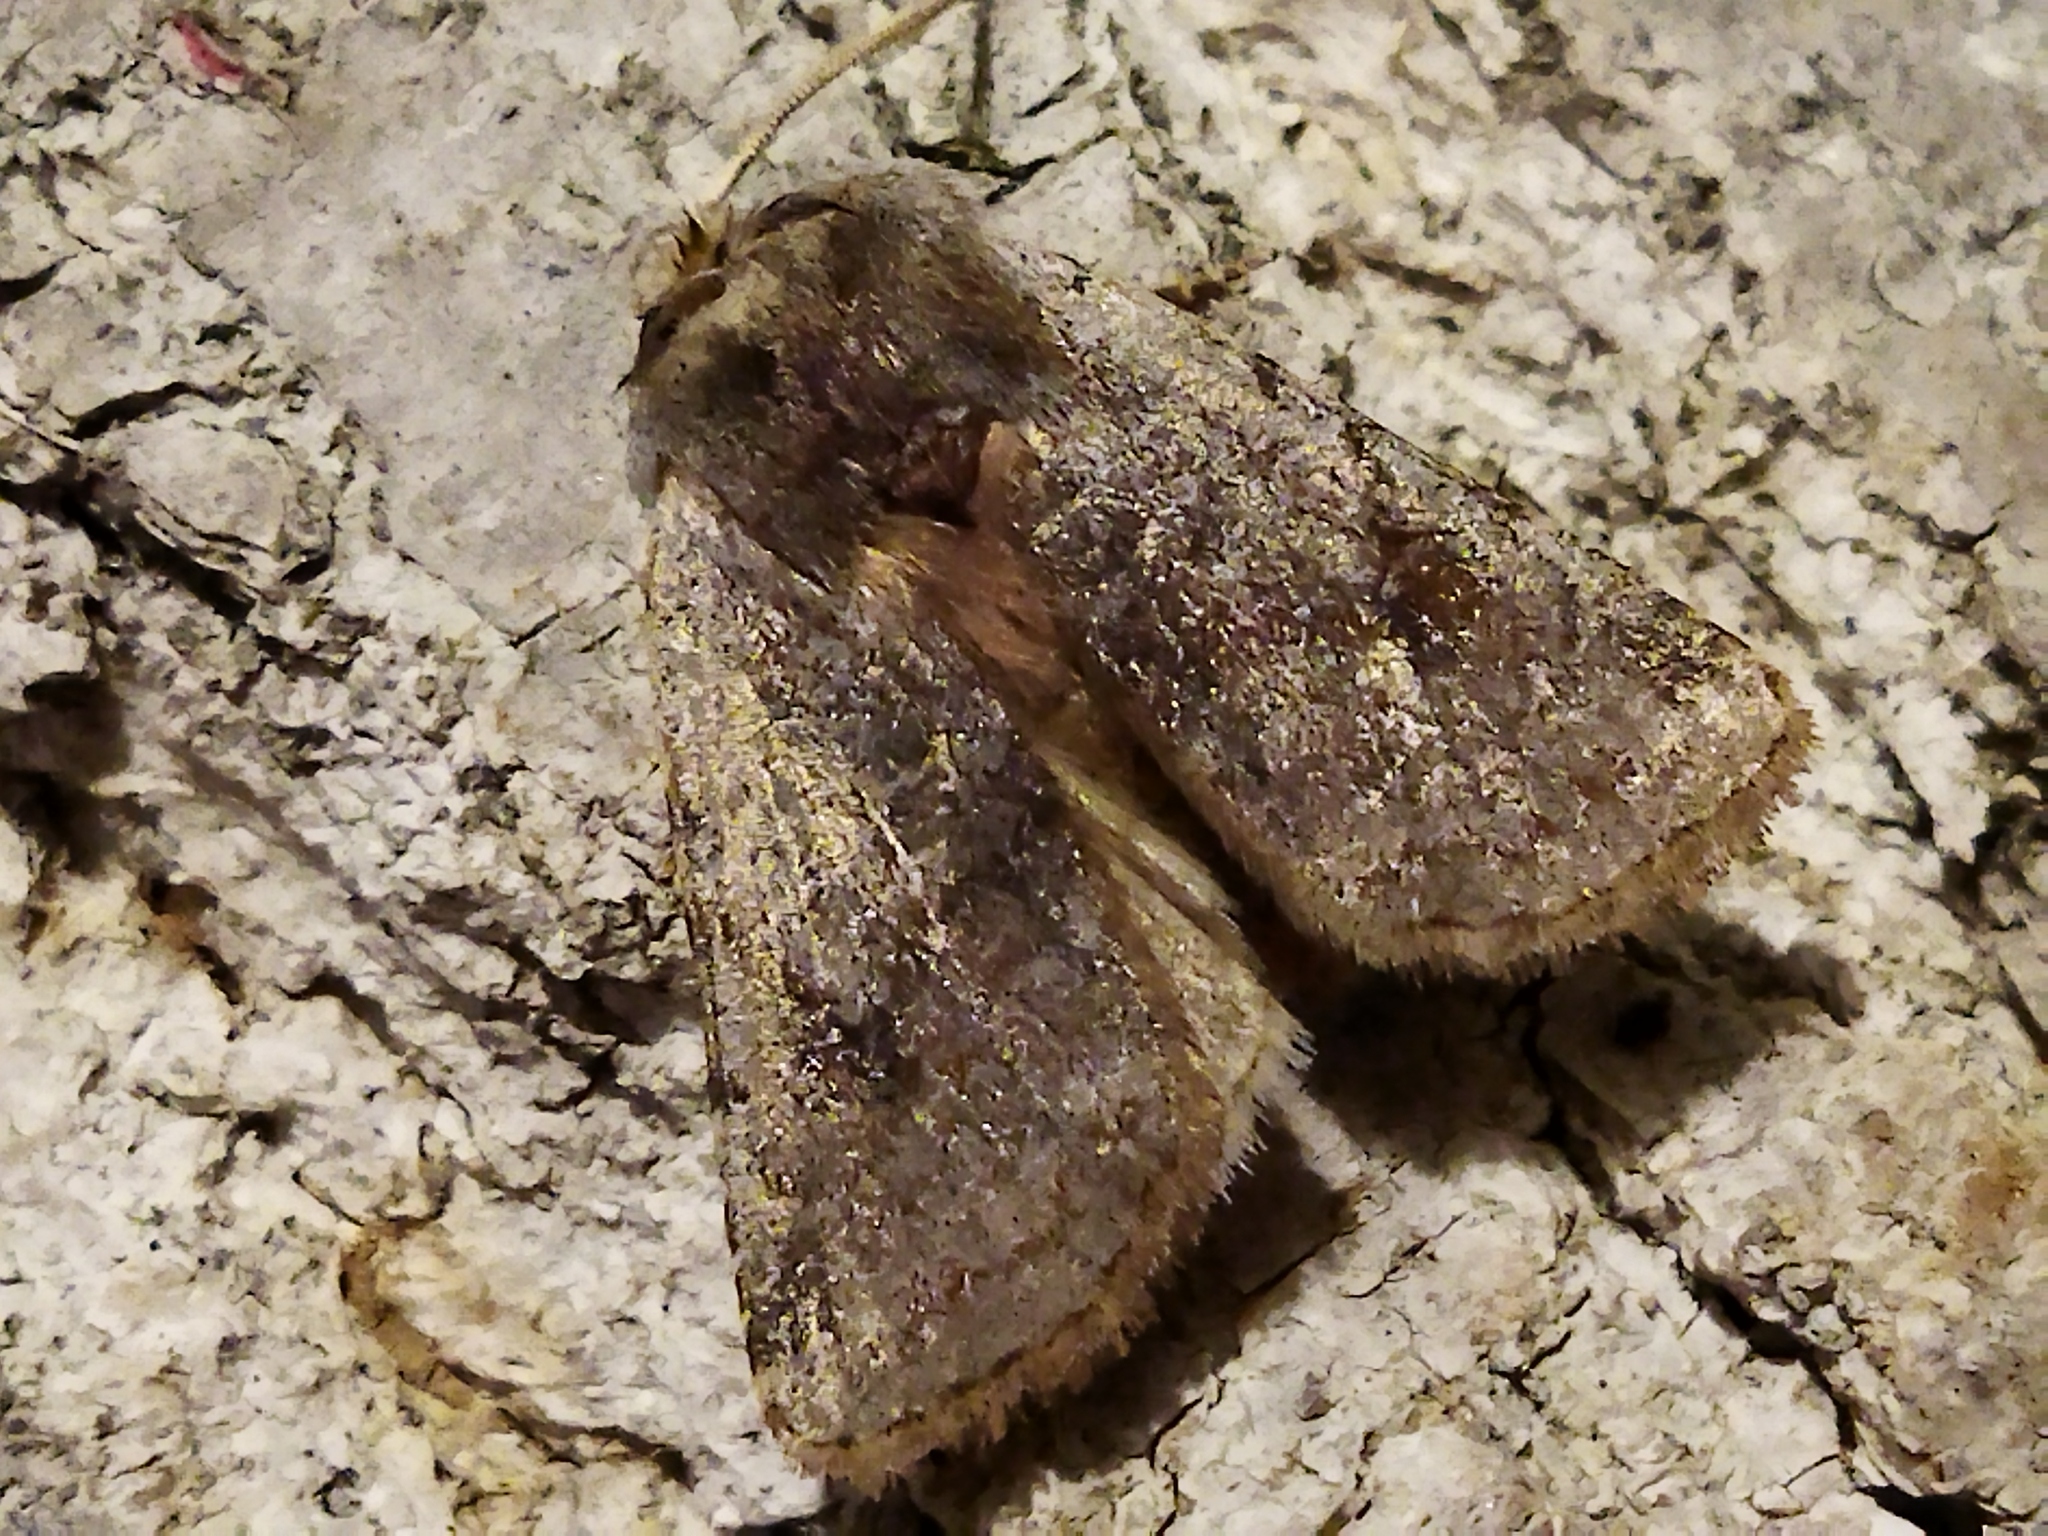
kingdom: Animalia
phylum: Arthropoda
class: Insecta
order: Lepidoptera
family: Noctuidae
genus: Cerastis
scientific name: Cerastis rubricosa
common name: Red chestnut
